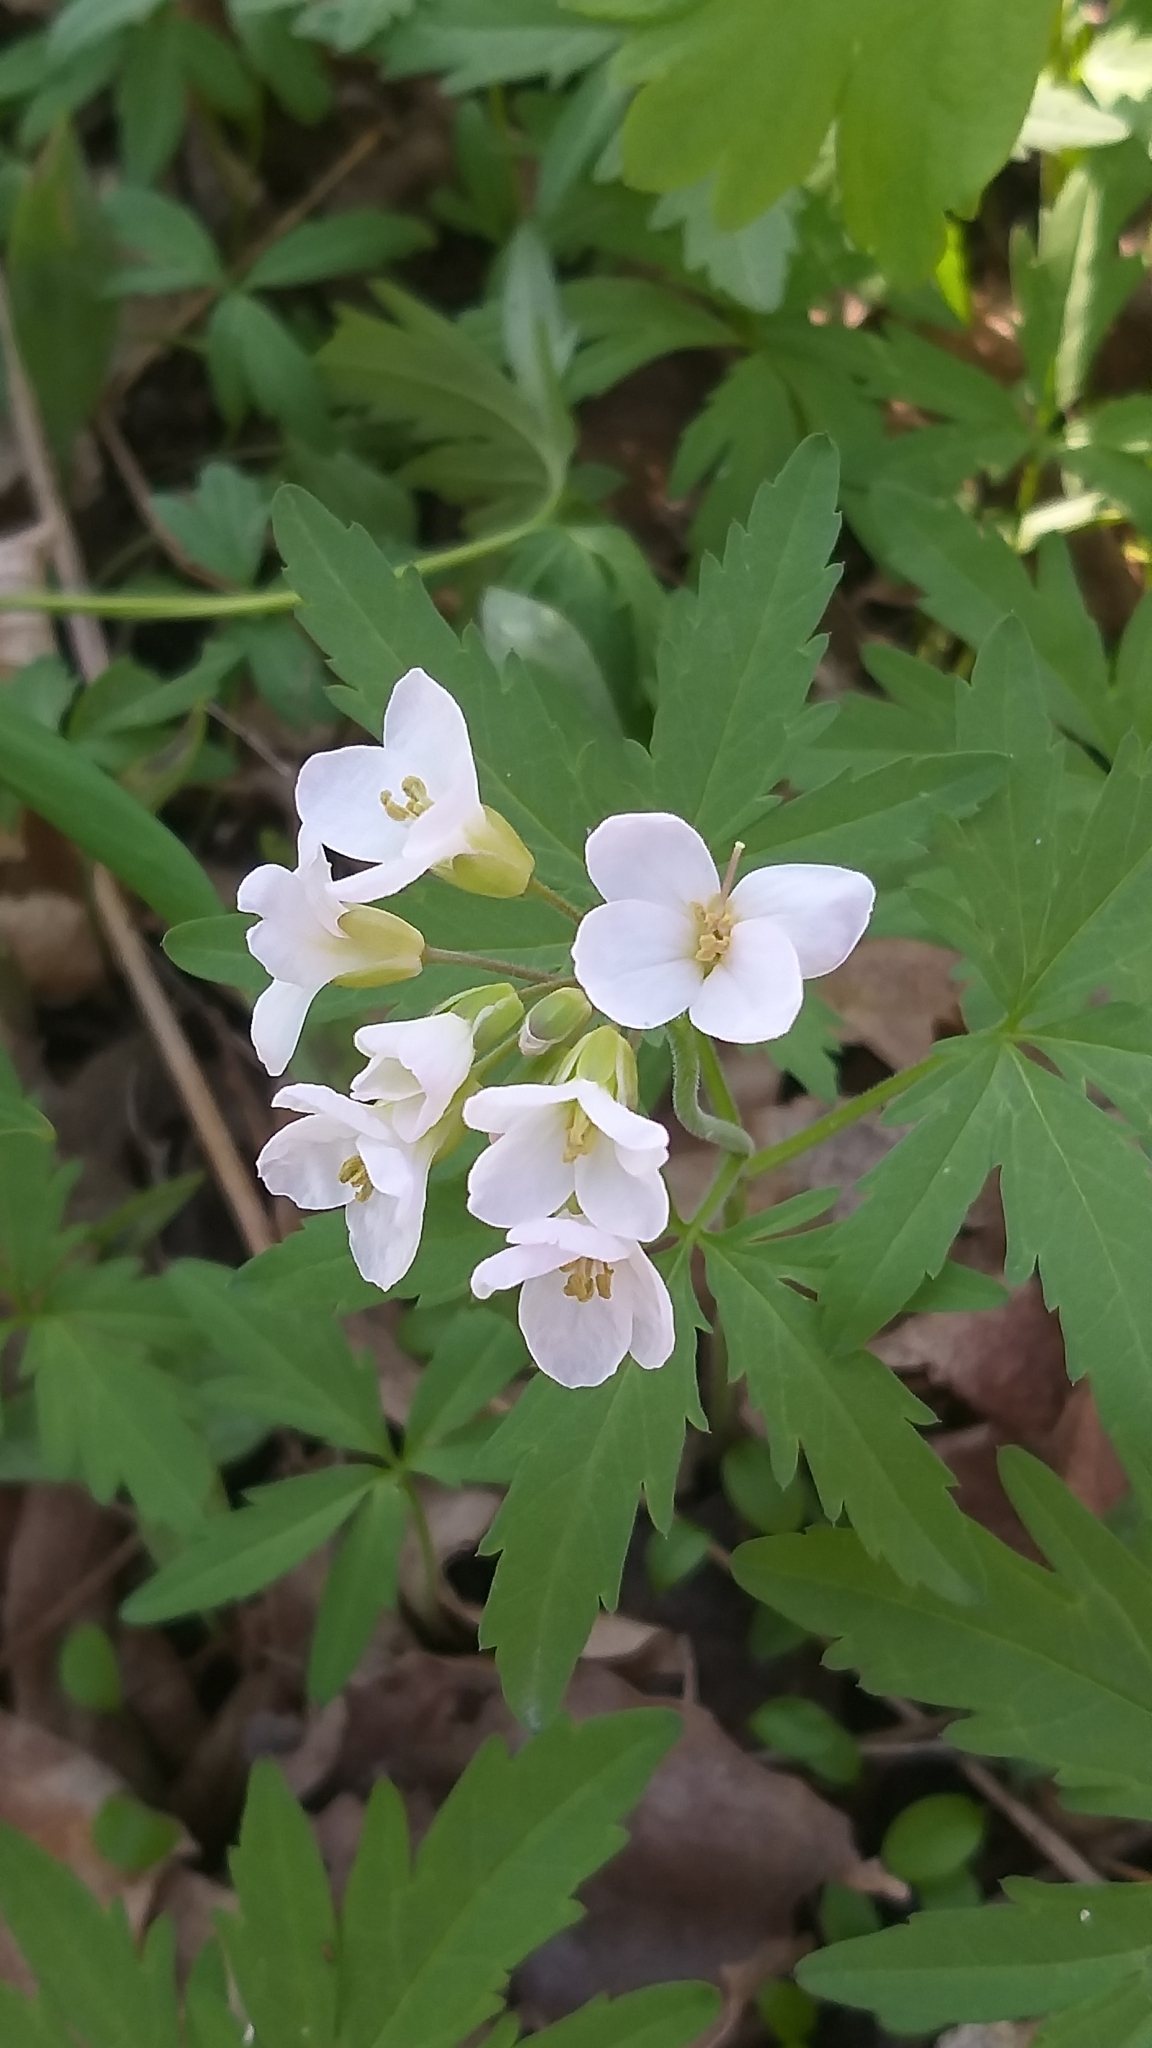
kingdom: Plantae
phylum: Tracheophyta
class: Magnoliopsida
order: Brassicales
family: Brassicaceae
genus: Cardamine
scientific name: Cardamine concatenata
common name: Cut-leaf toothcup
